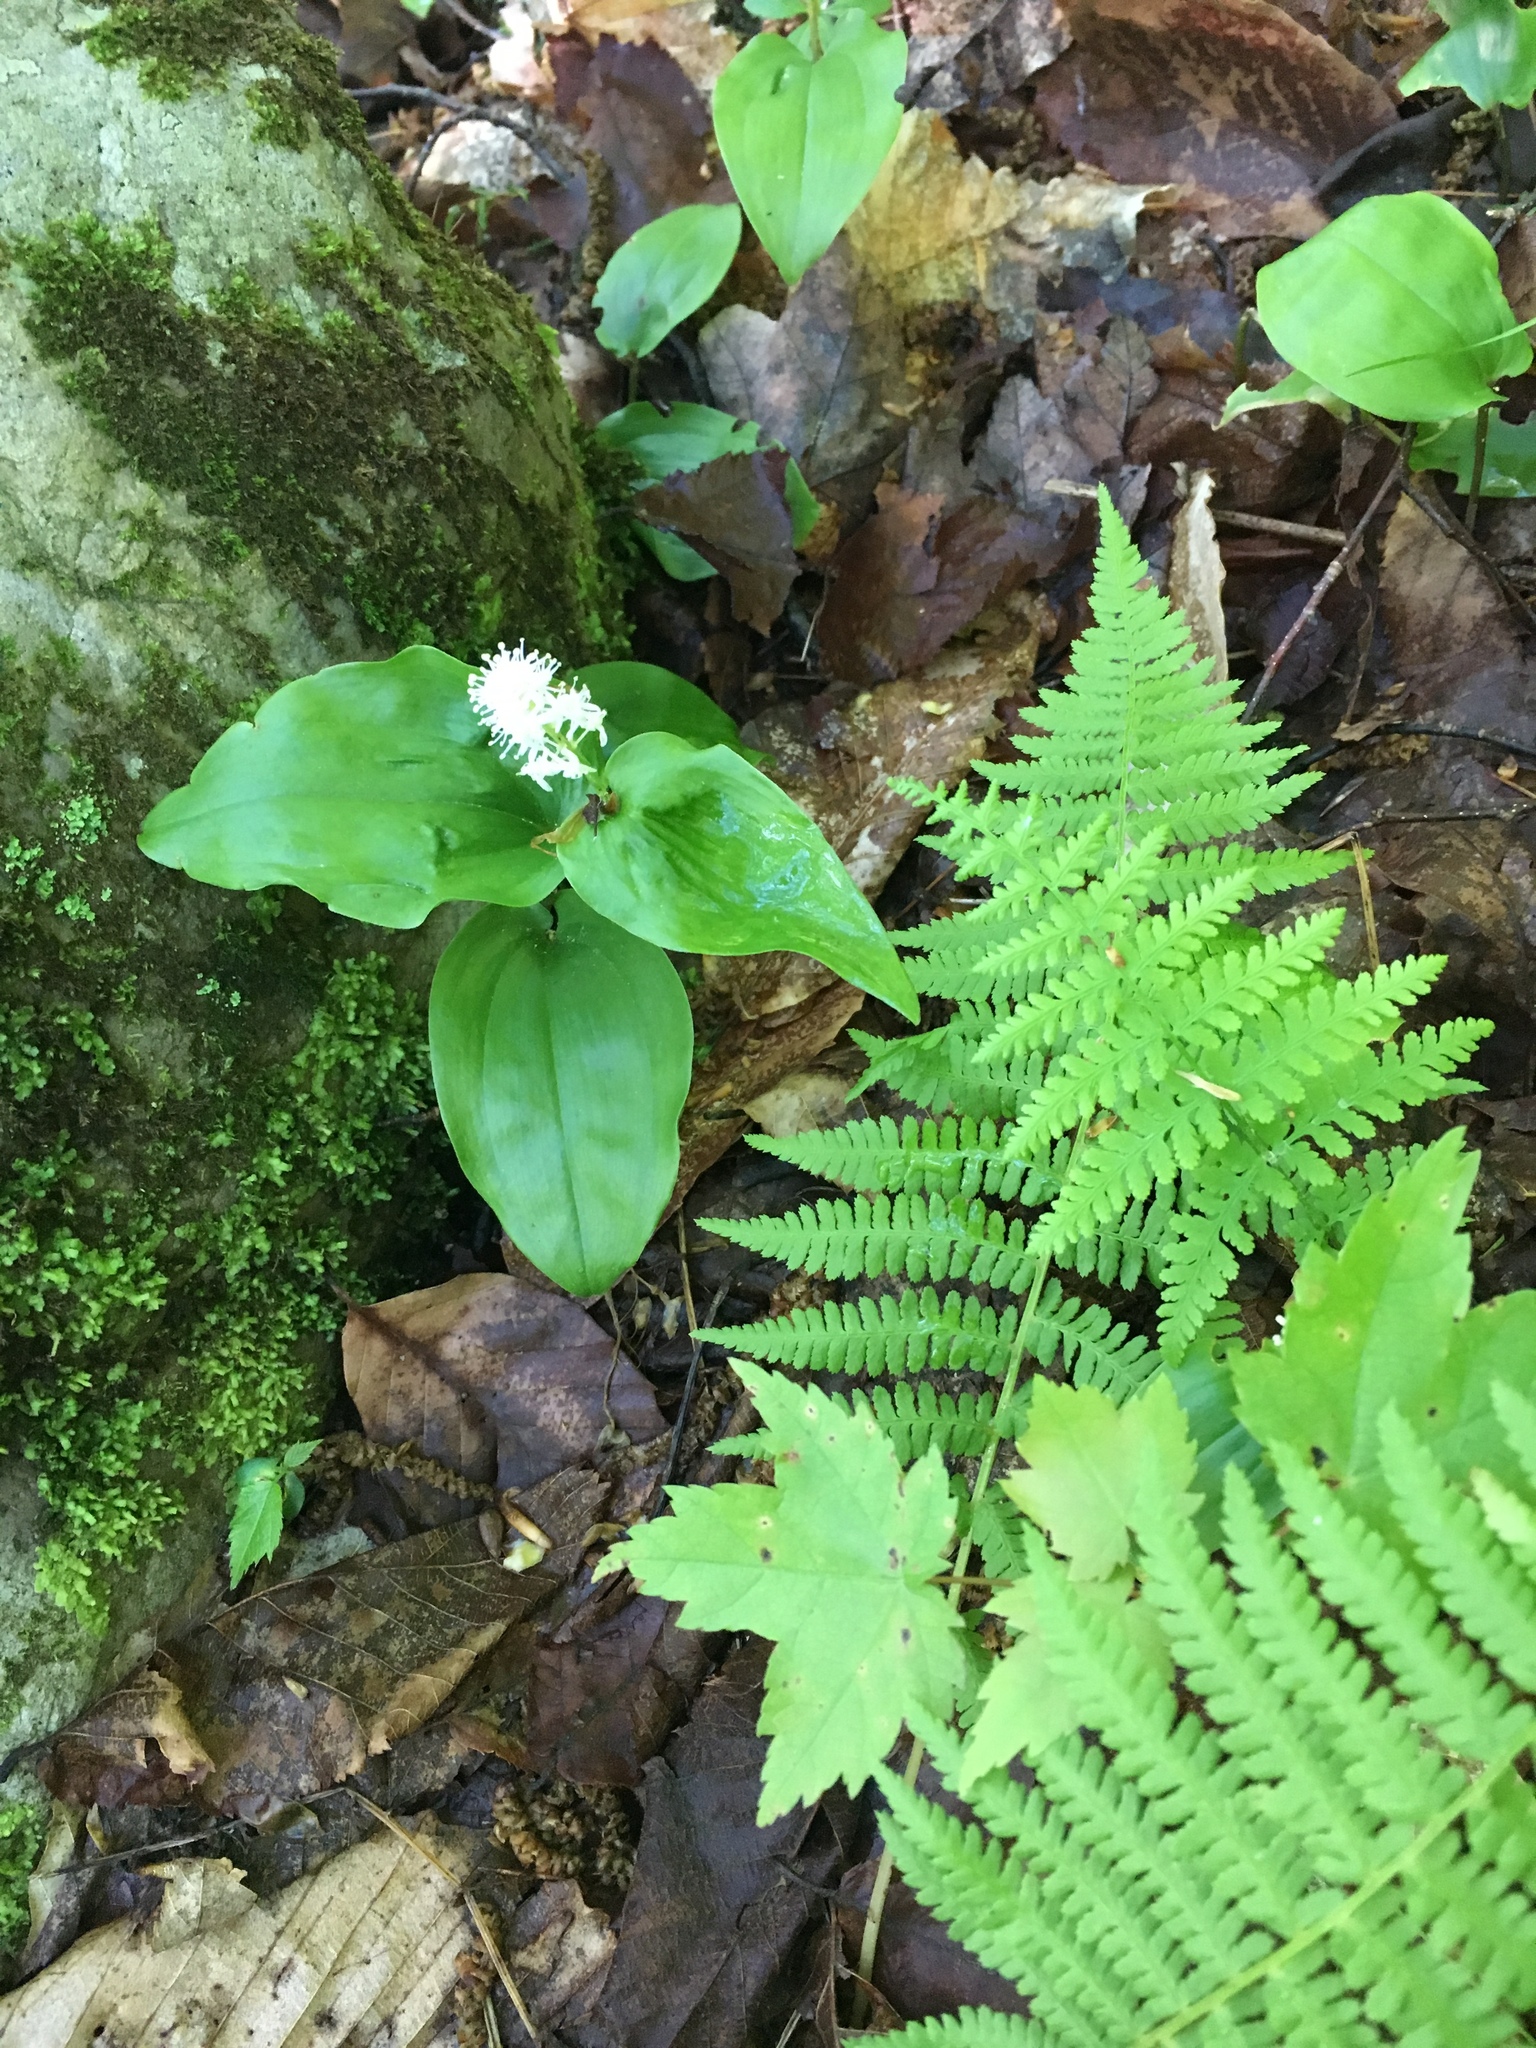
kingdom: Plantae
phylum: Tracheophyta
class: Liliopsida
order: Asparagales
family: Asparagaceae
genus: Maianthemum
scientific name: Maianthemum canadense
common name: False lily-of-the-valley
